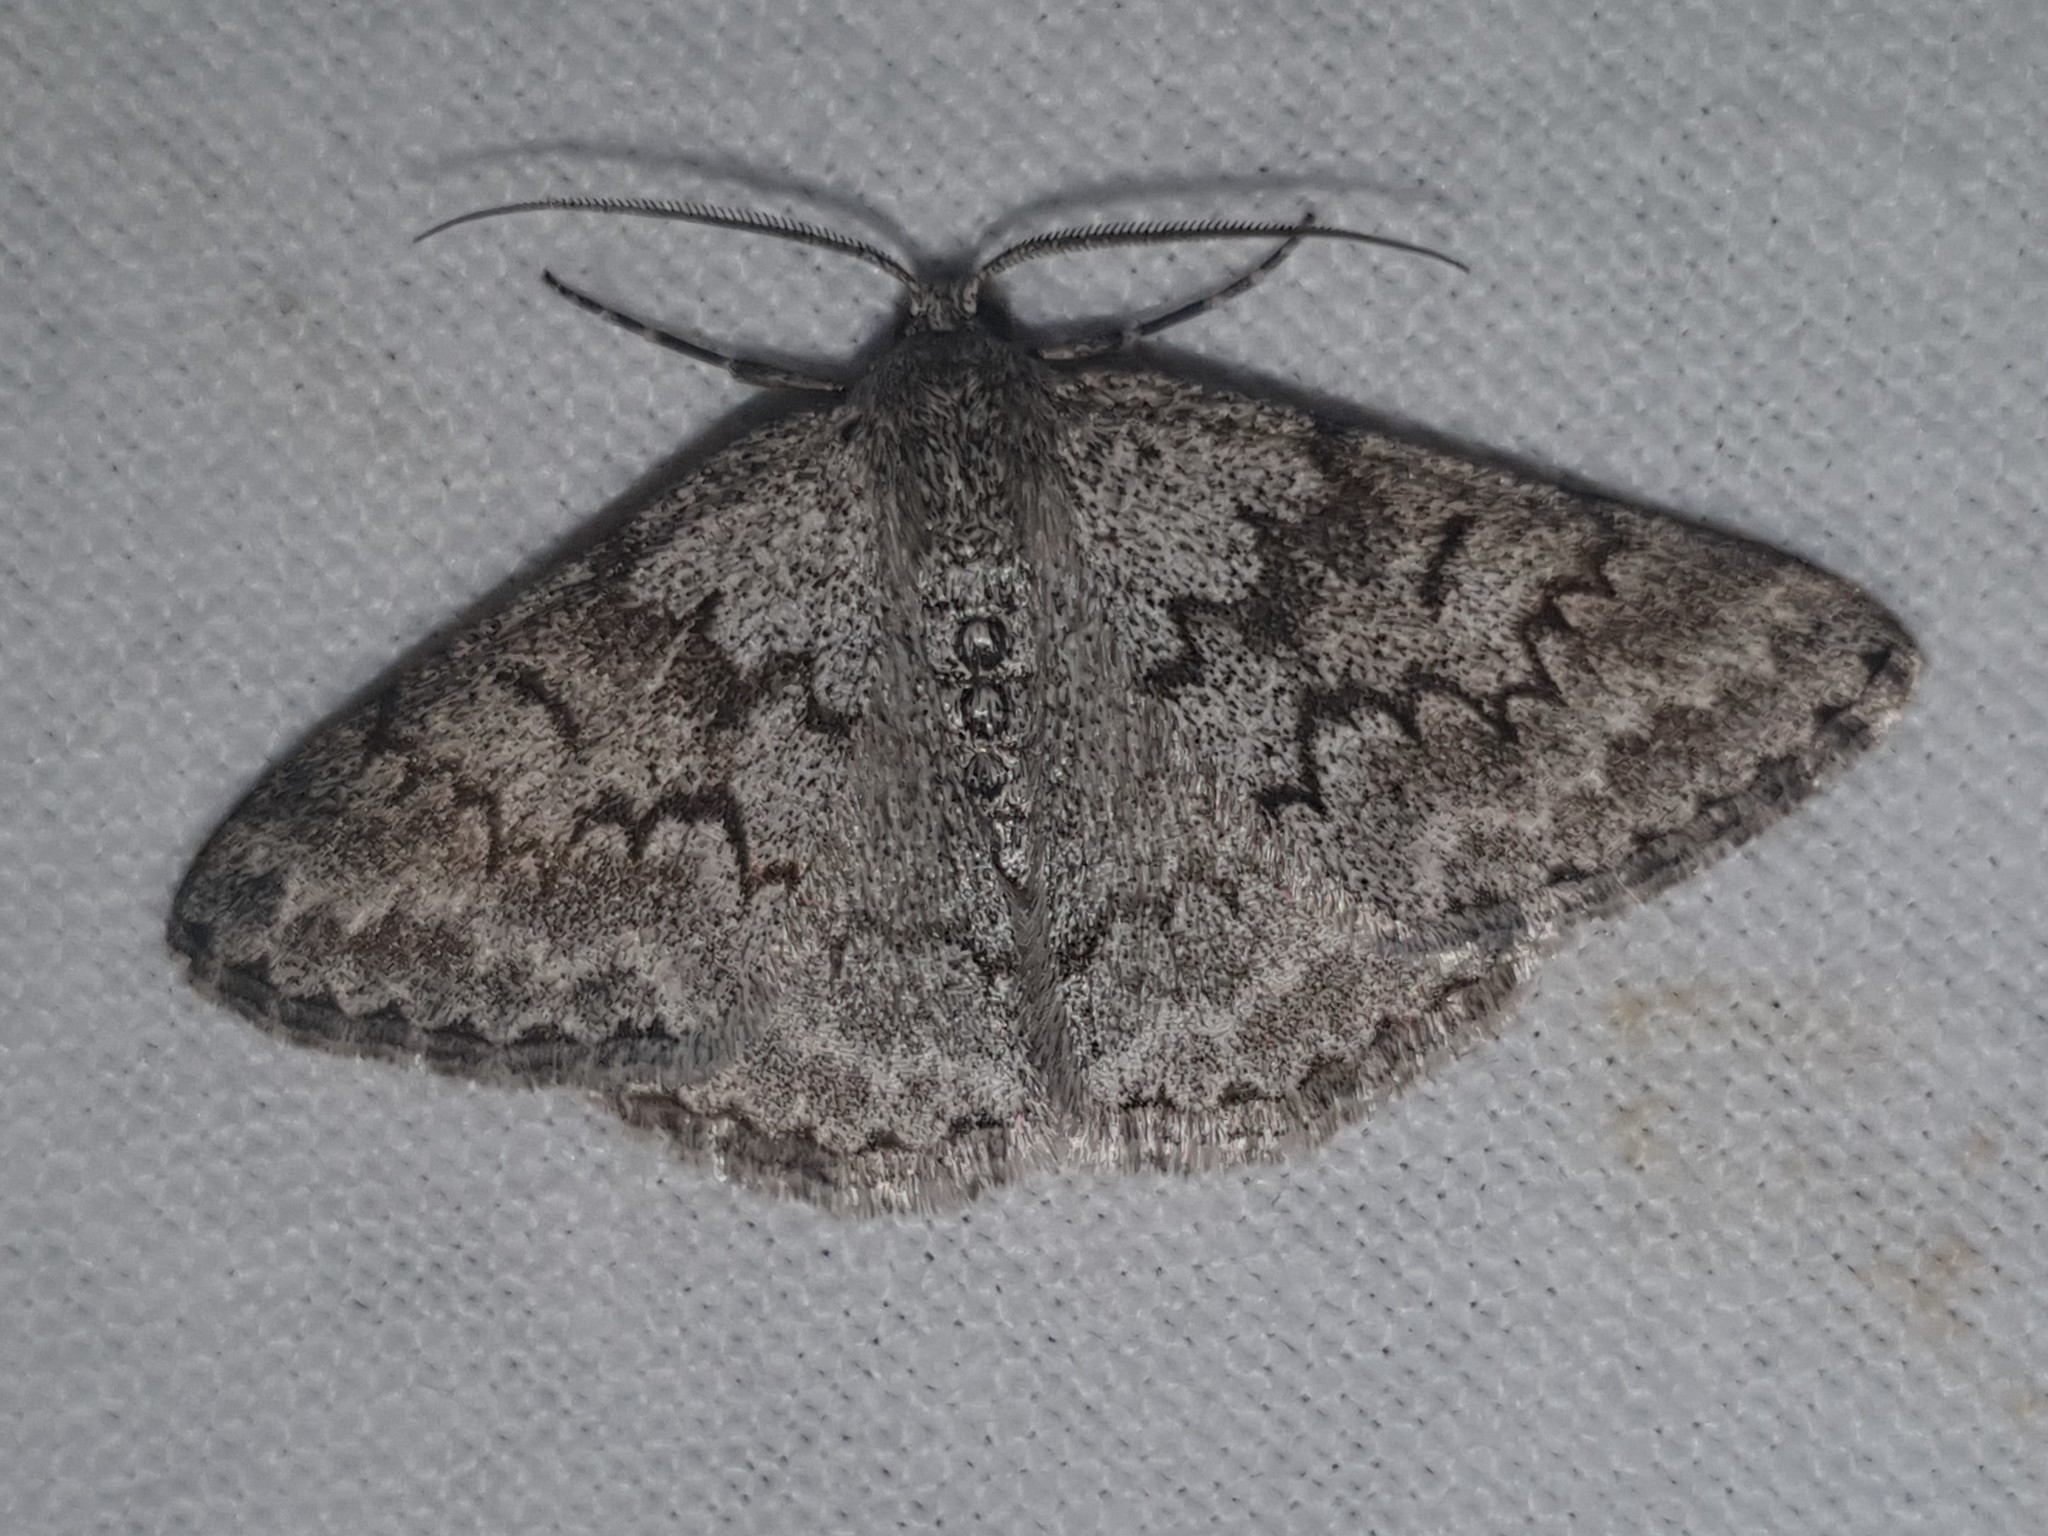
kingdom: Animalia
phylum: Arthropoda
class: Insecta
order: Lepidoptera
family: Geometridae
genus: Pseudoterpna
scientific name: Pseudoterpna coronillaria
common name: Jersey emerald
